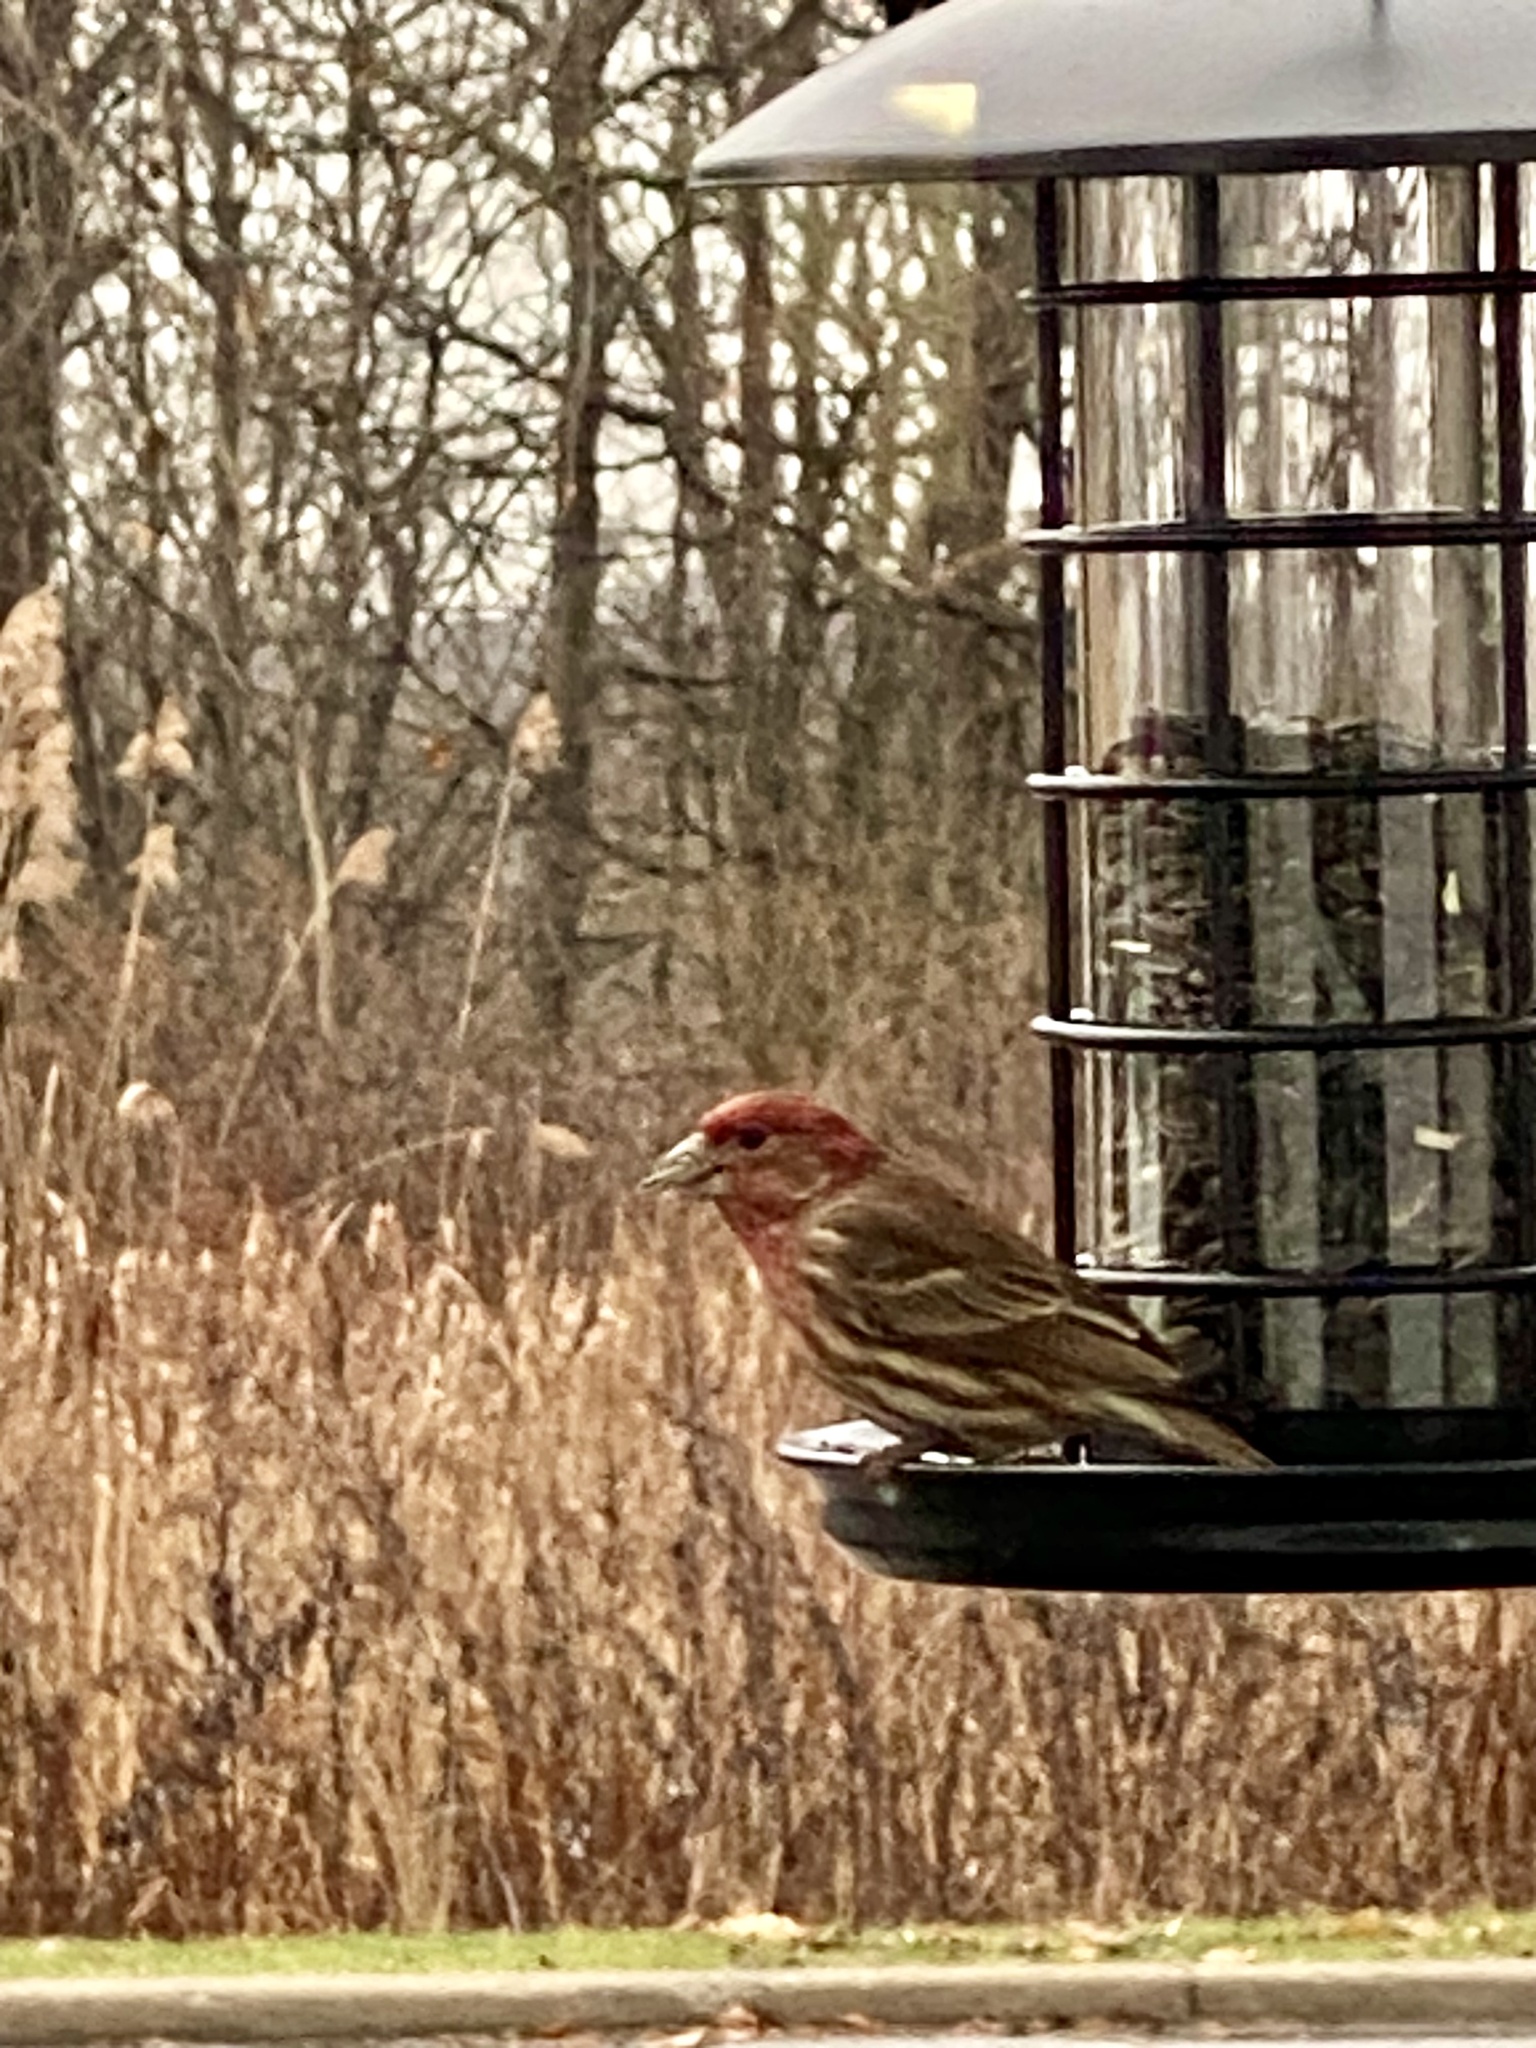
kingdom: Animalia
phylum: Chordata
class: Aves
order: Passeriformes
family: Fringillidae
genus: Haemorhous
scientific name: Haemorhous mexicanus
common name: House finch
